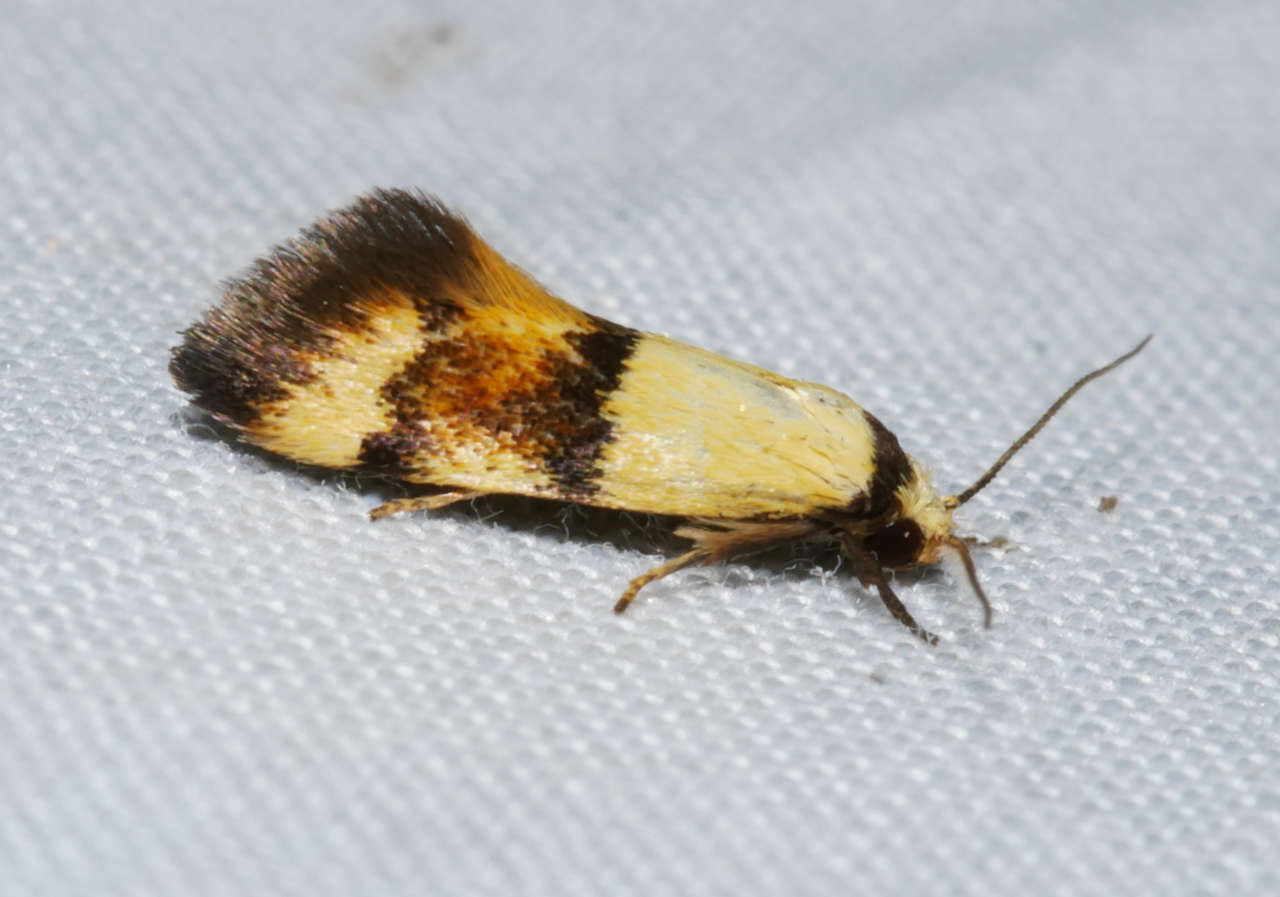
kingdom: Animalia
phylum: Arthropoda
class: Insecta
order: Lepidoptera
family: Oecophoridae
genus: Temnogyropa
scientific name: Temnogyropa stenomorpha
